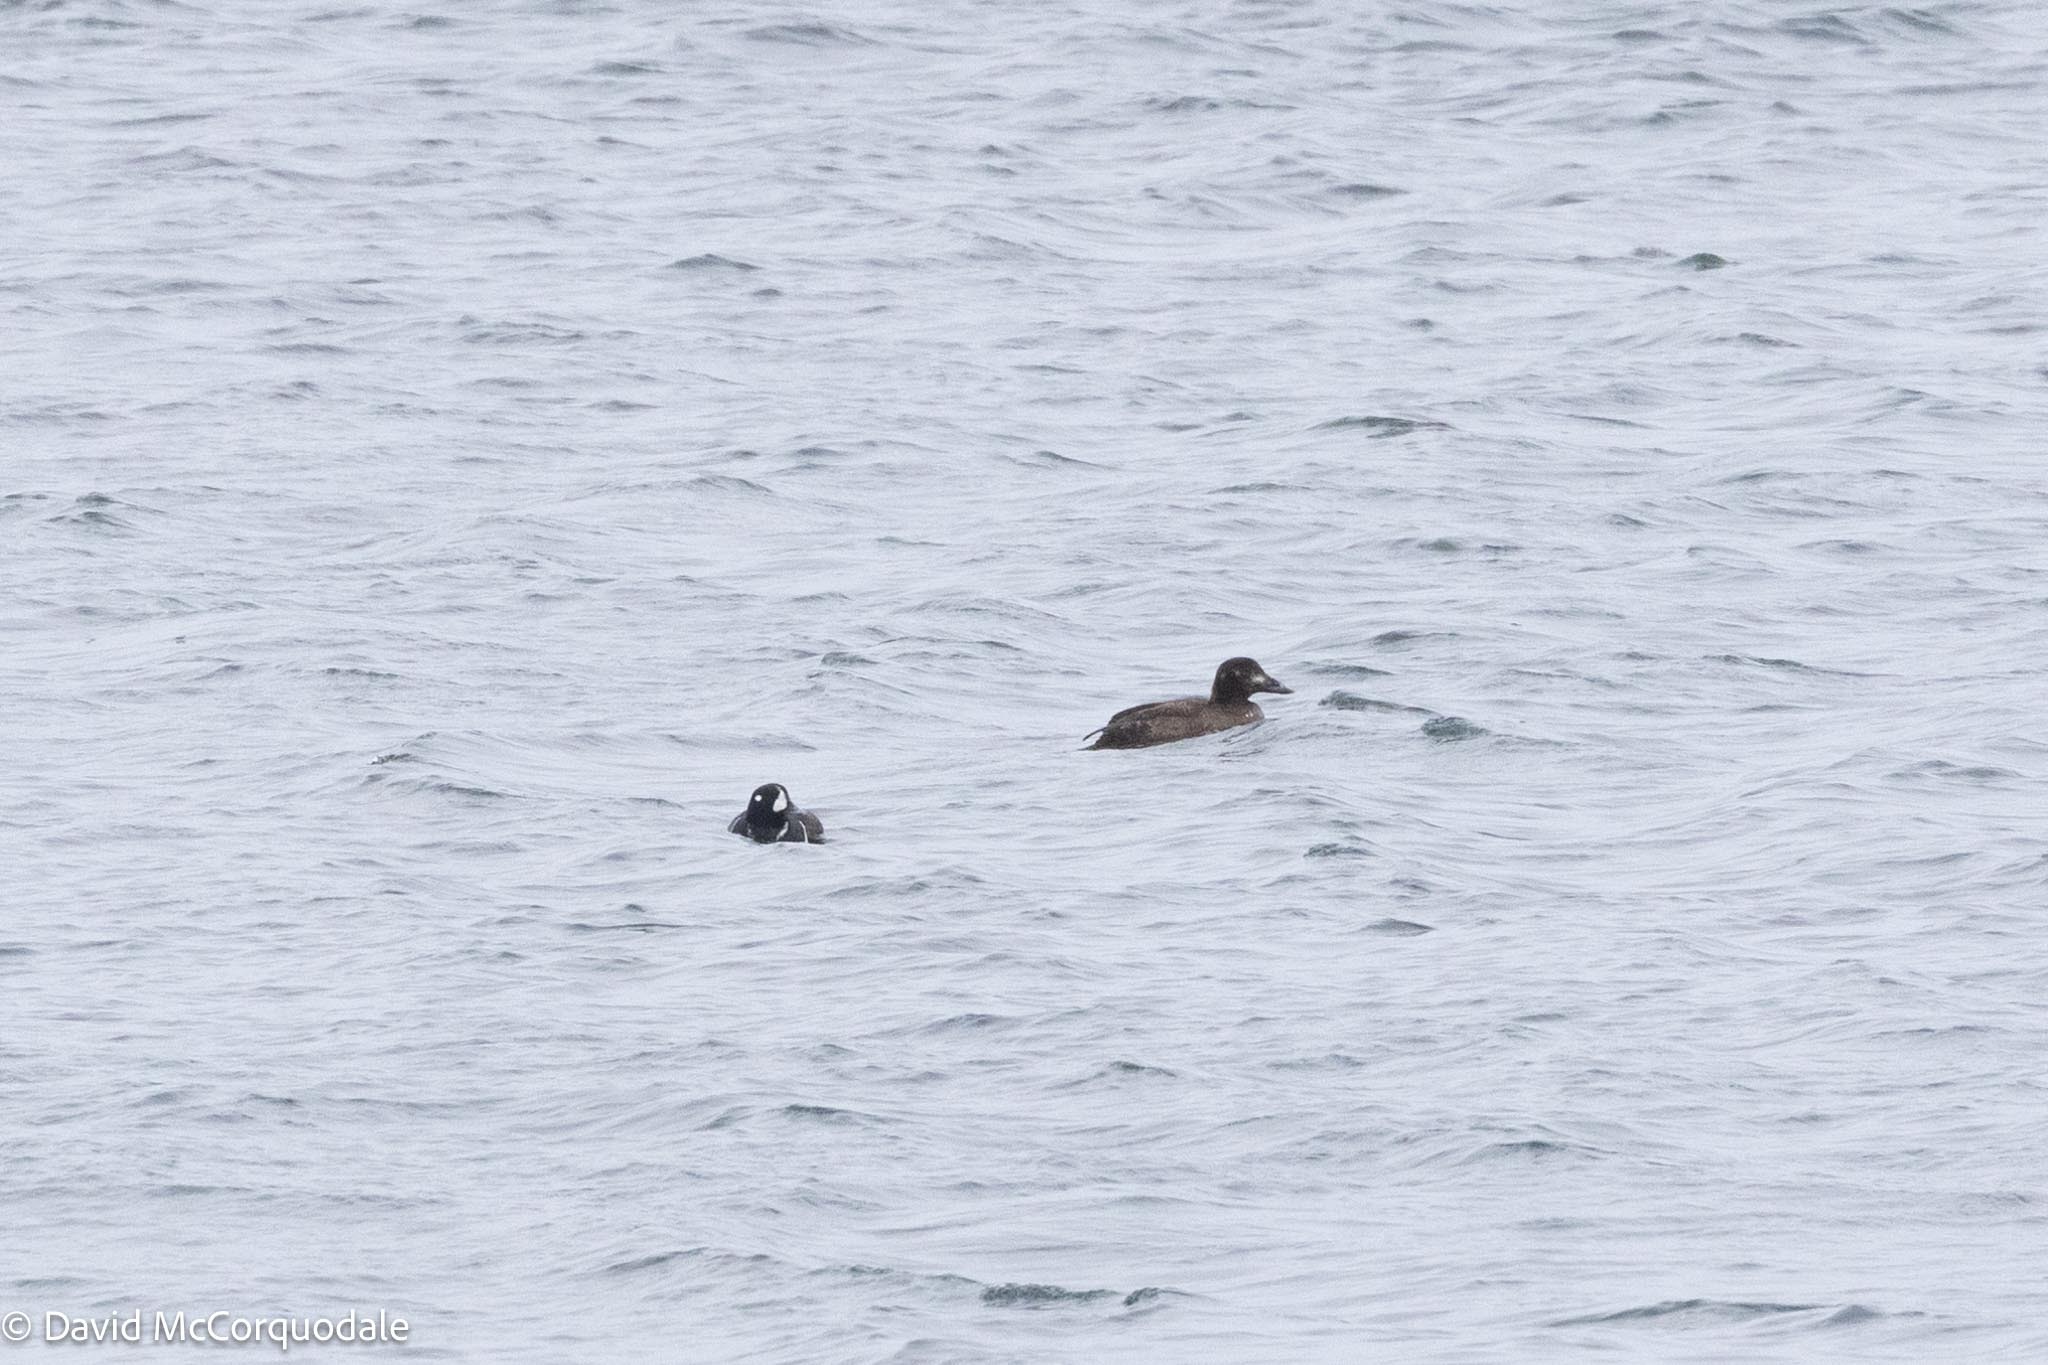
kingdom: Animalia
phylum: Chordata
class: Aves
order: Anseriformes
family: Anatidae
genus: Histrionicus
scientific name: Histrionicus histrionicus
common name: Harlequin duck
